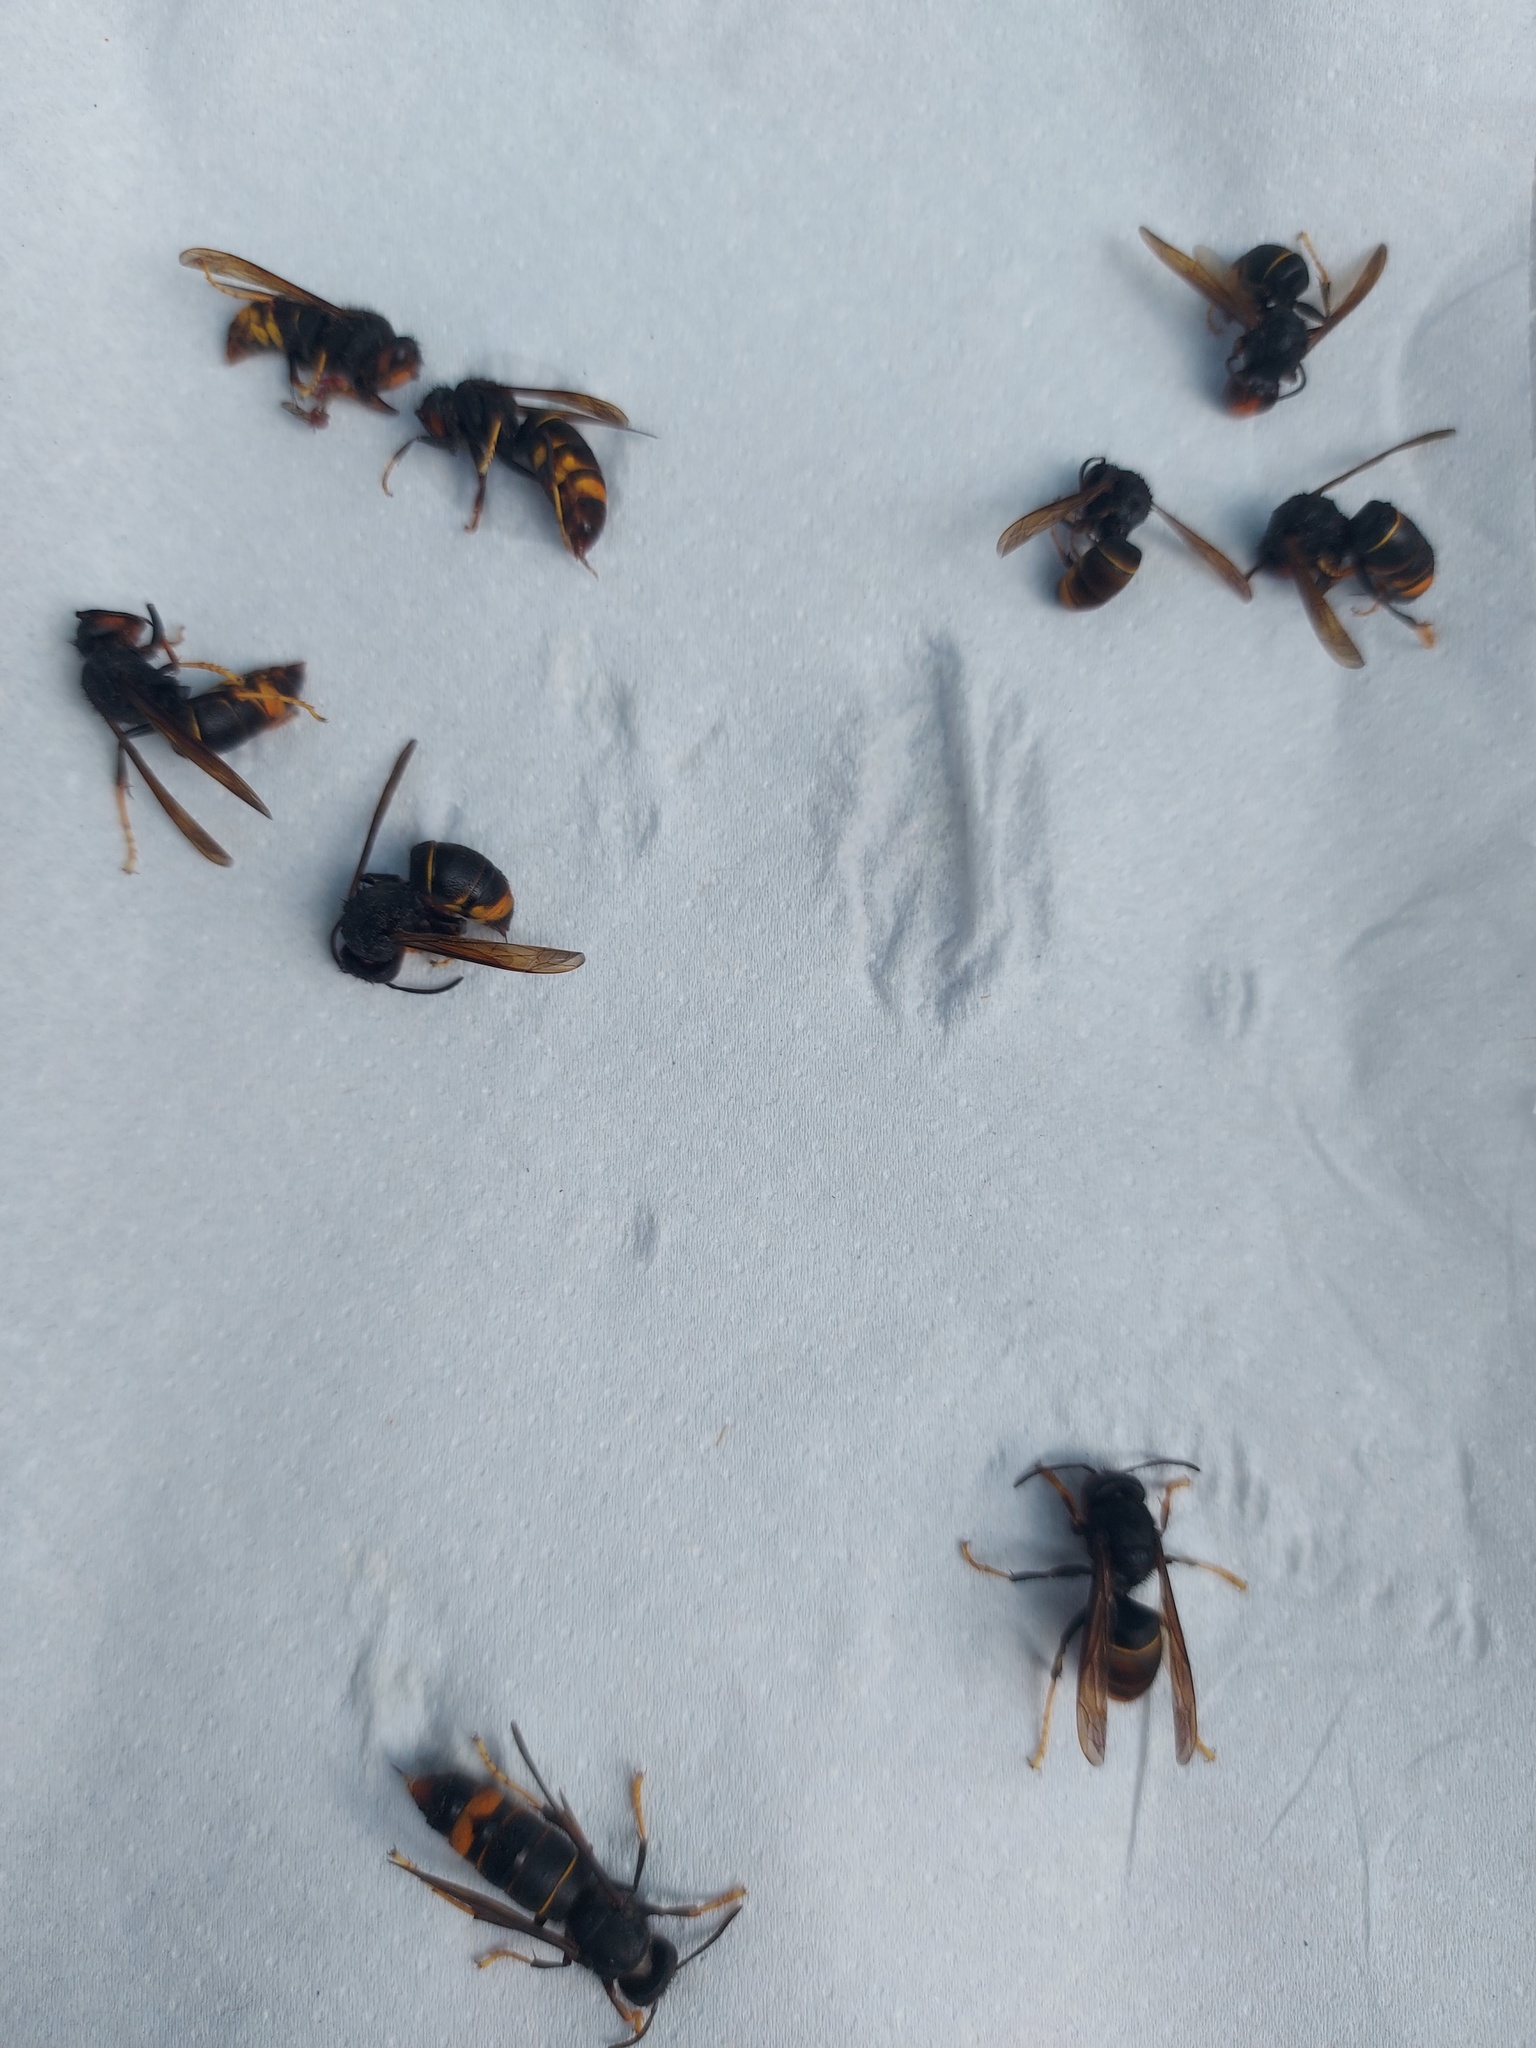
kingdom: Animalia
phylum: Arthropoda
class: Insecta
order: Hymenoptera
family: Vespidae
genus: Vespa
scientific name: Vespa velutina
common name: Asian hornet
